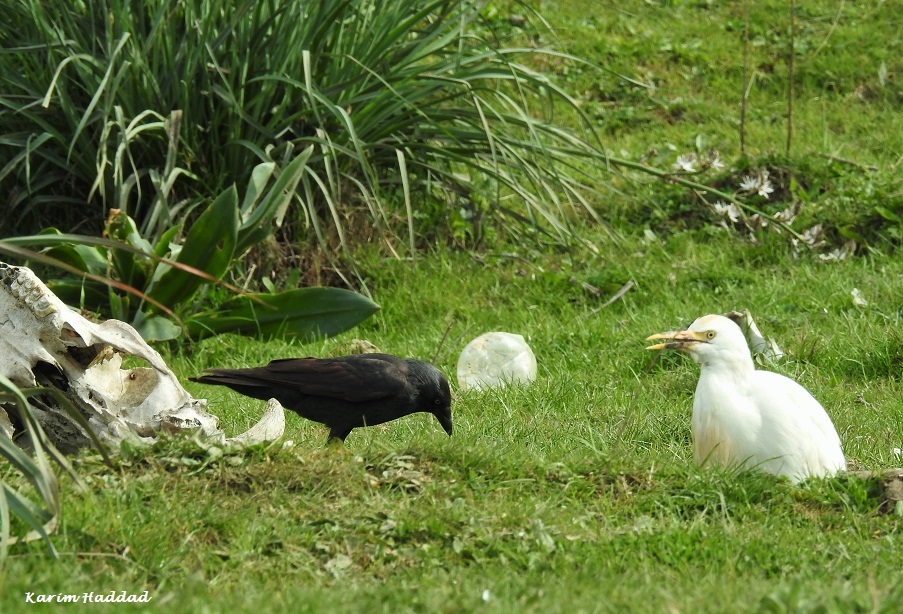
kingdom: Animalia
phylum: Chordata
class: Aves
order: Passeriformes
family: Corvidae
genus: Coloeus
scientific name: Coloeus monedula
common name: Western jackdaw
